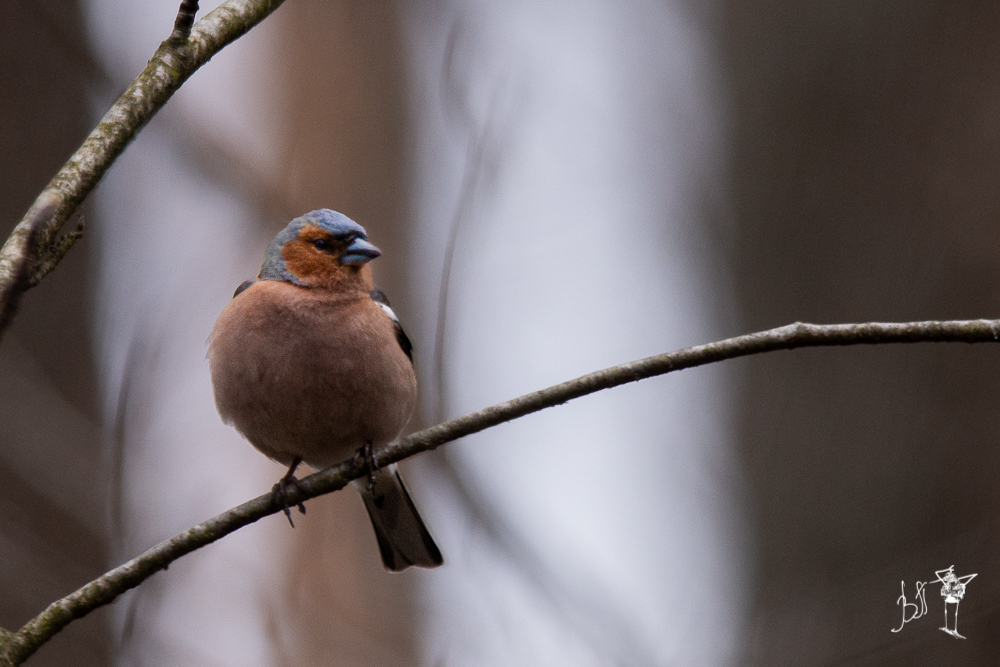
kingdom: Animalia
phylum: Chordata
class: Aves
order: Passeriformes
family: Fringillidae
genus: Fringilla
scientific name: Fringilla coelebs
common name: Common chaffinch
